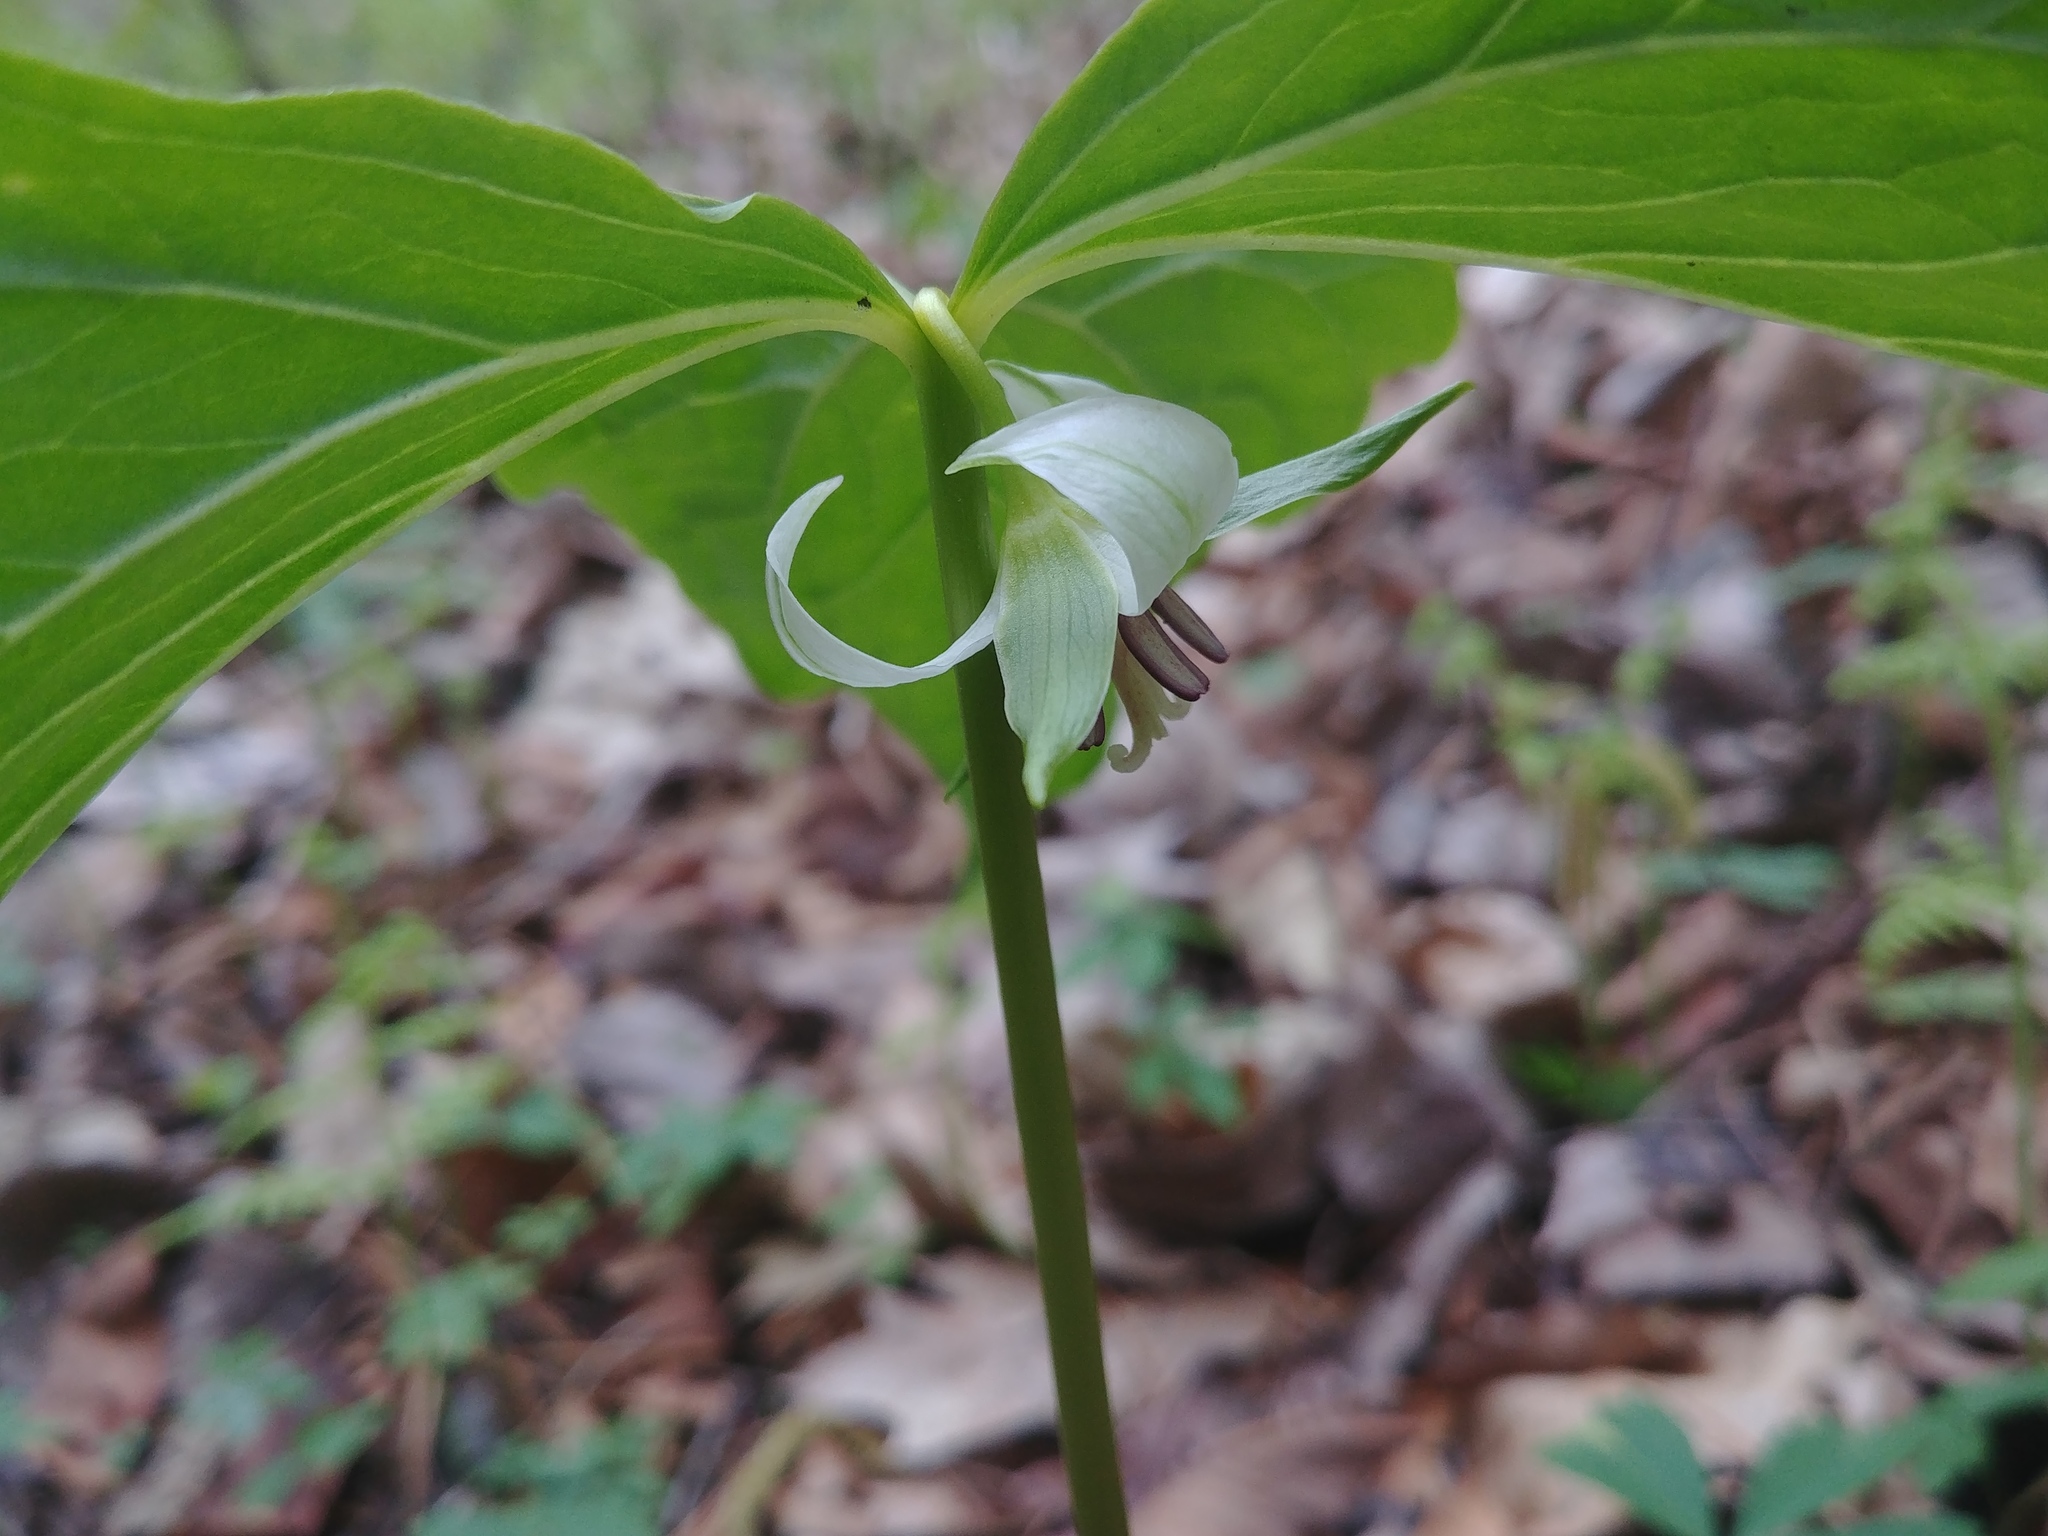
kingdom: Plantae
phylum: Tracheophyta
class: Liliopsida
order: Liliales
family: Melanthiaceae
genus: Trillium
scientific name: Trillium cernuum
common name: Nodding trillium
